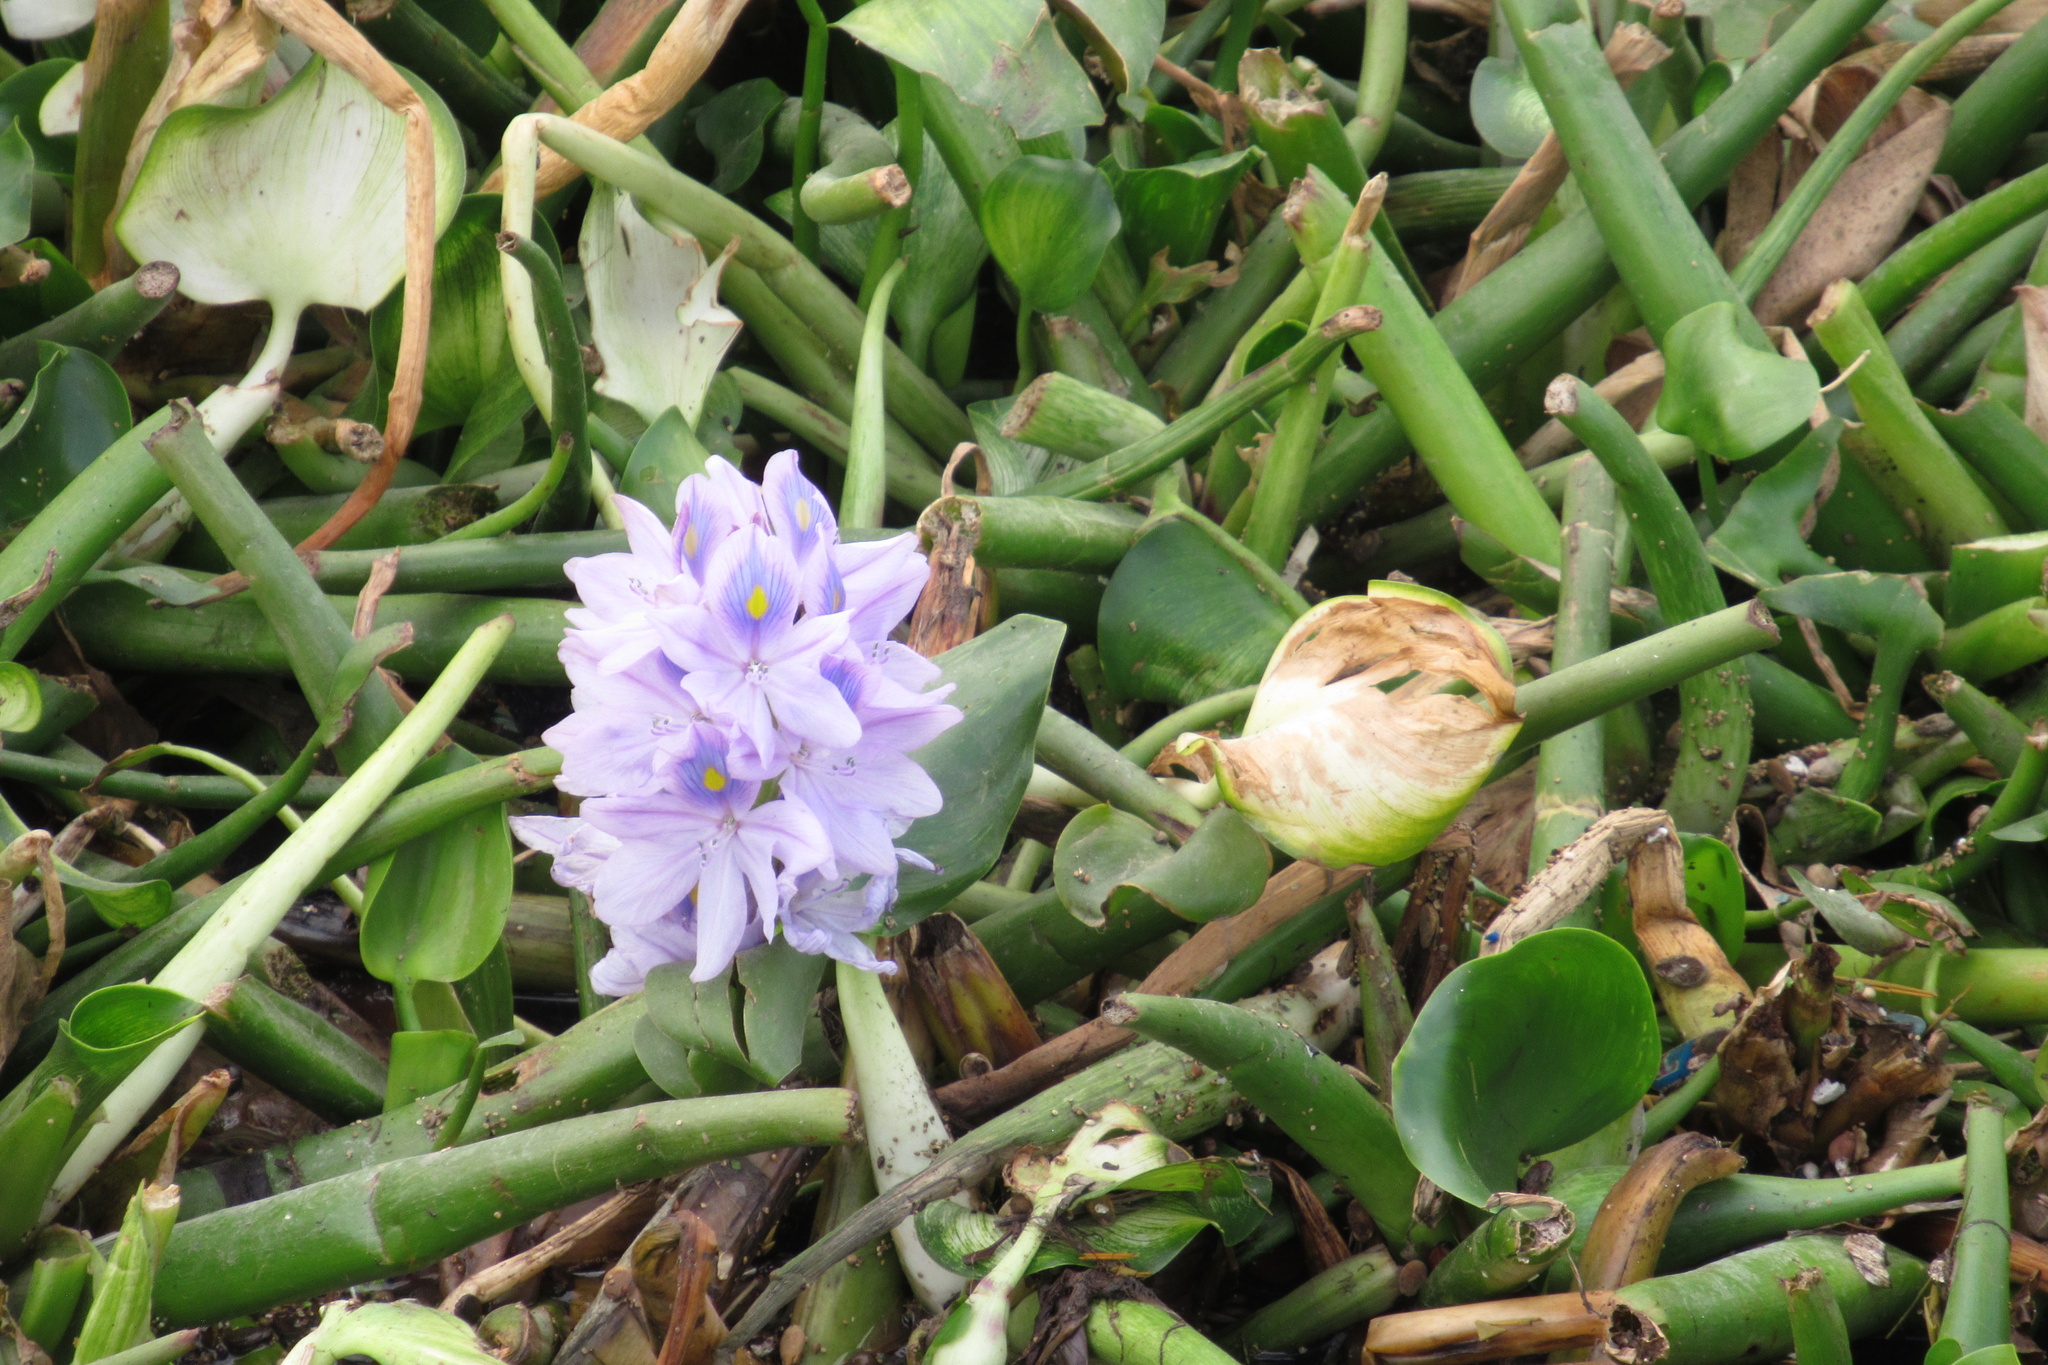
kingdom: Plantae
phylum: Tracheophyta
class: Liliopsida
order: Commelinales
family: Pontederiaceae
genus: Pontederia
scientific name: Pontederia crassipes
